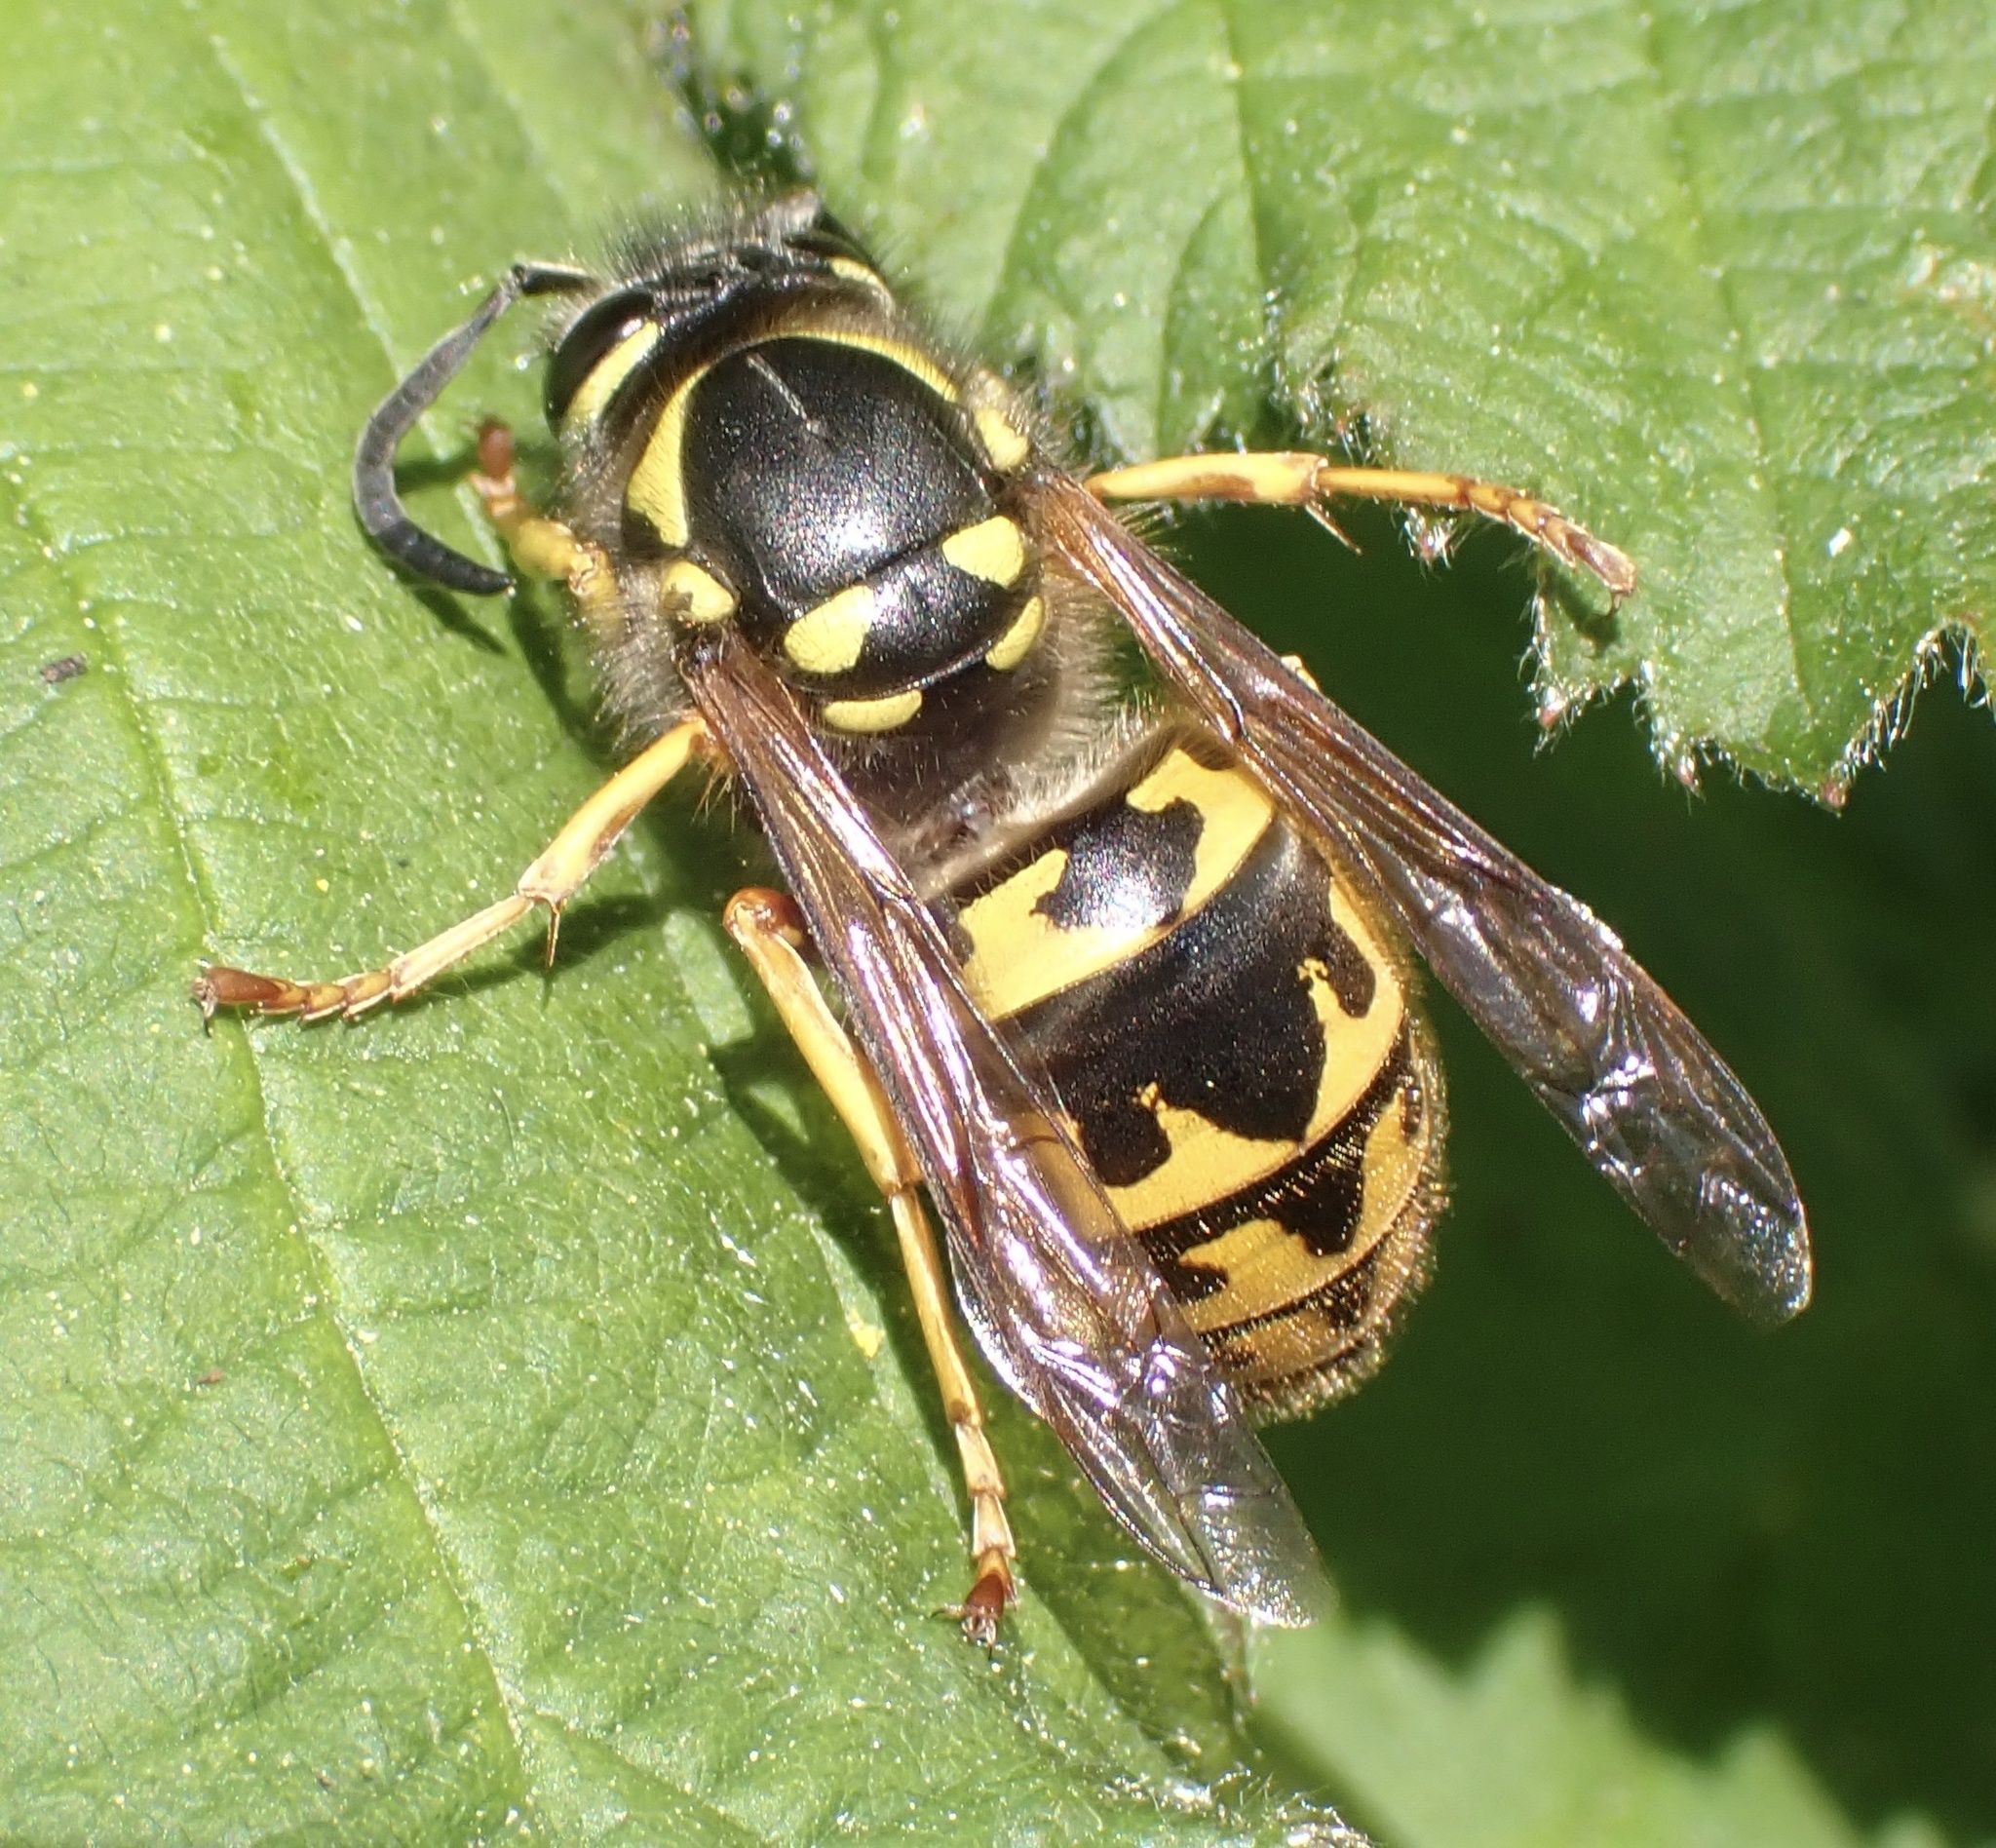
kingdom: Animalia
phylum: Arthropoda
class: Insecta
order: Hymenoptera
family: Vespidae
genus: Vespula
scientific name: Vespula germanica
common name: German wasp
